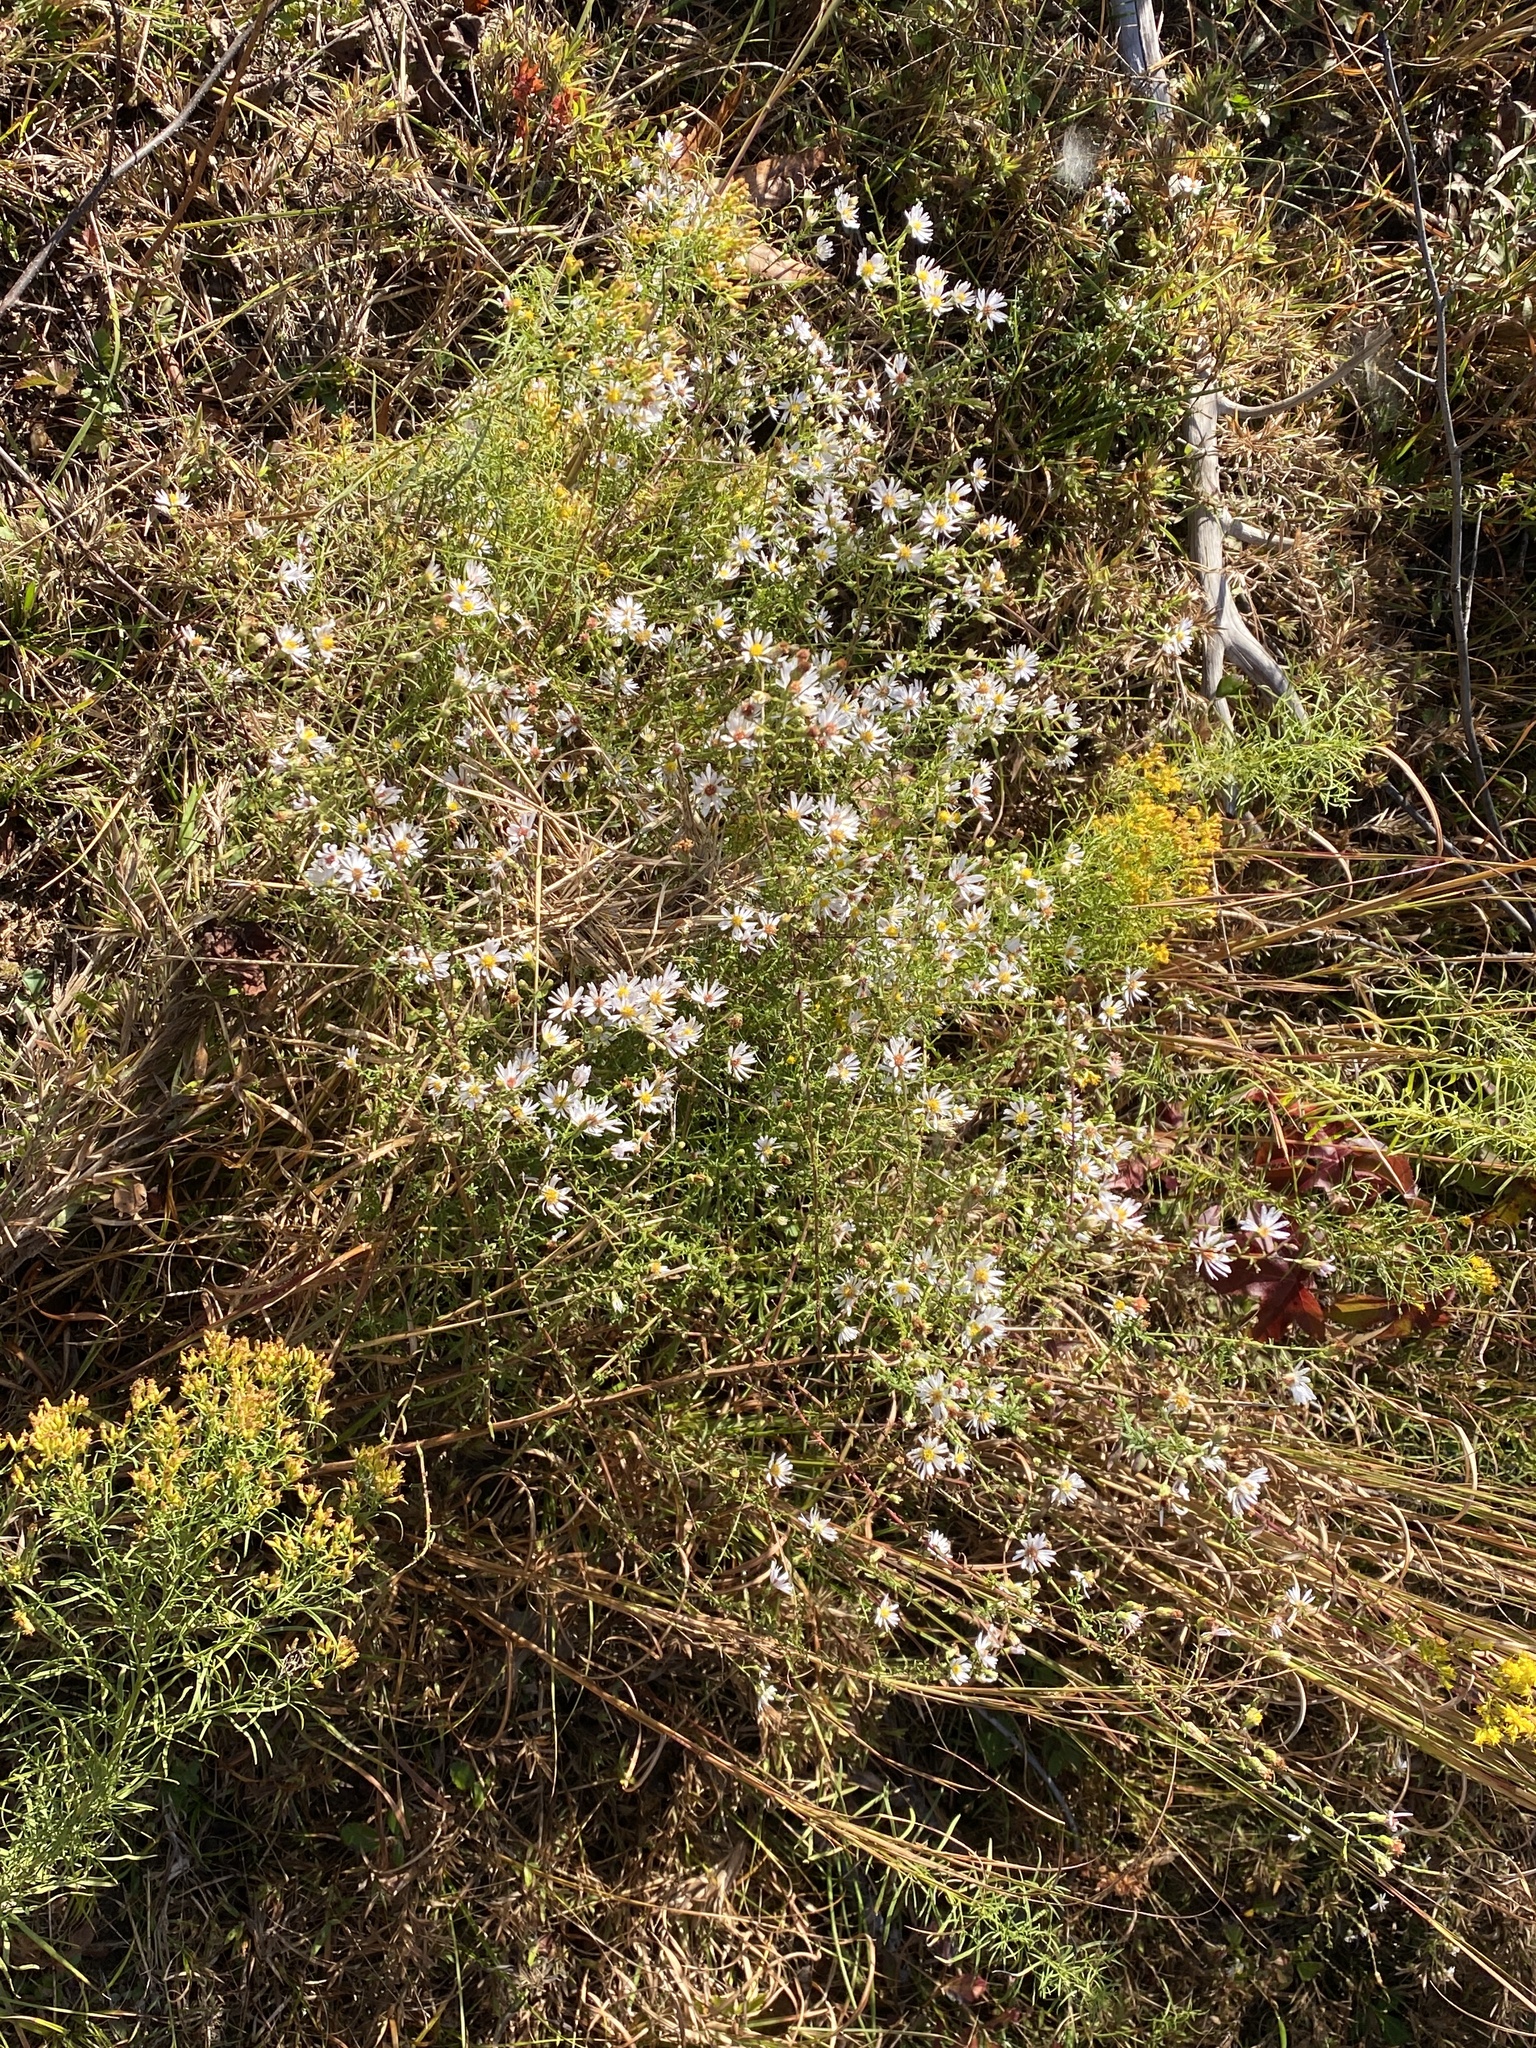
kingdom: Plantae
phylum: Tracheophyta
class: Magnoliopsida
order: Asterales
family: Asteraceae
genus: Symphyotrichum
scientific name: Symphyotrichum dumosum
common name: Bushy aster
